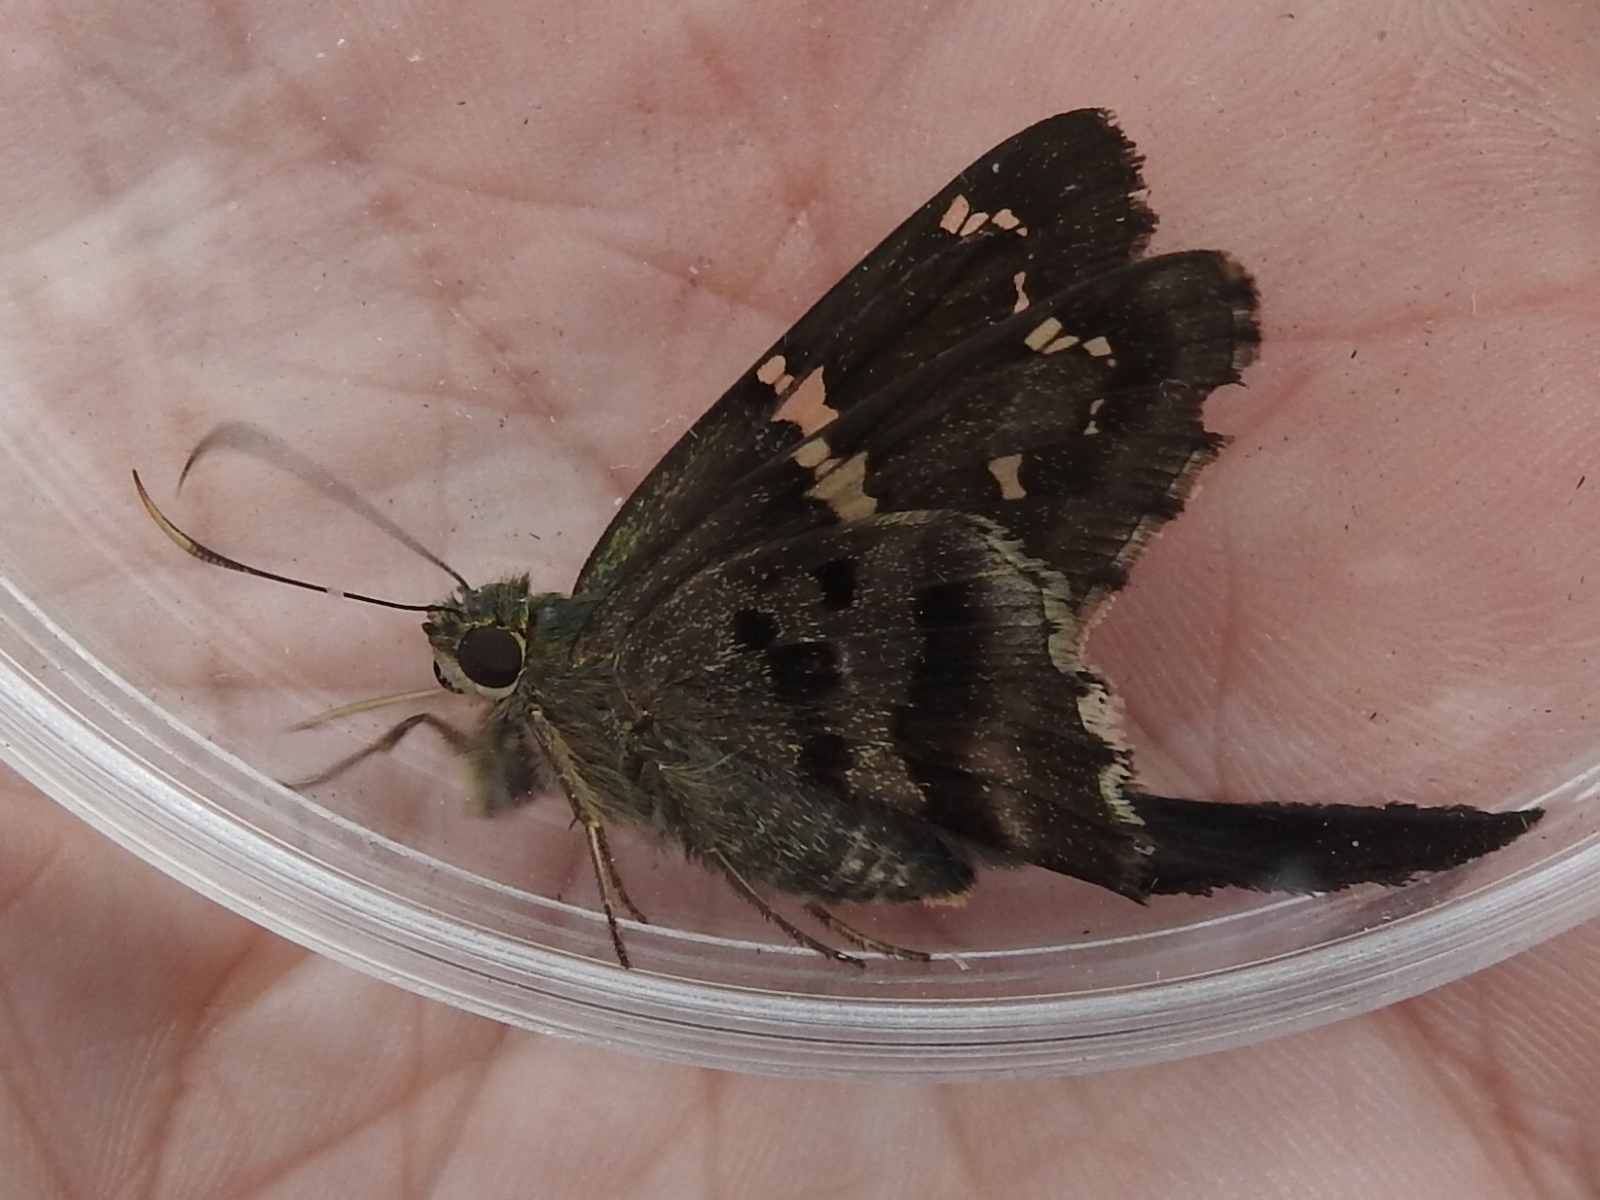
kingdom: Animalia
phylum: Arthropoda
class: Insecta
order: Lepidoptera
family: Hesperiidae
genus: Urbanus
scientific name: Urbanus proteus
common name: Long-tailed skipper
